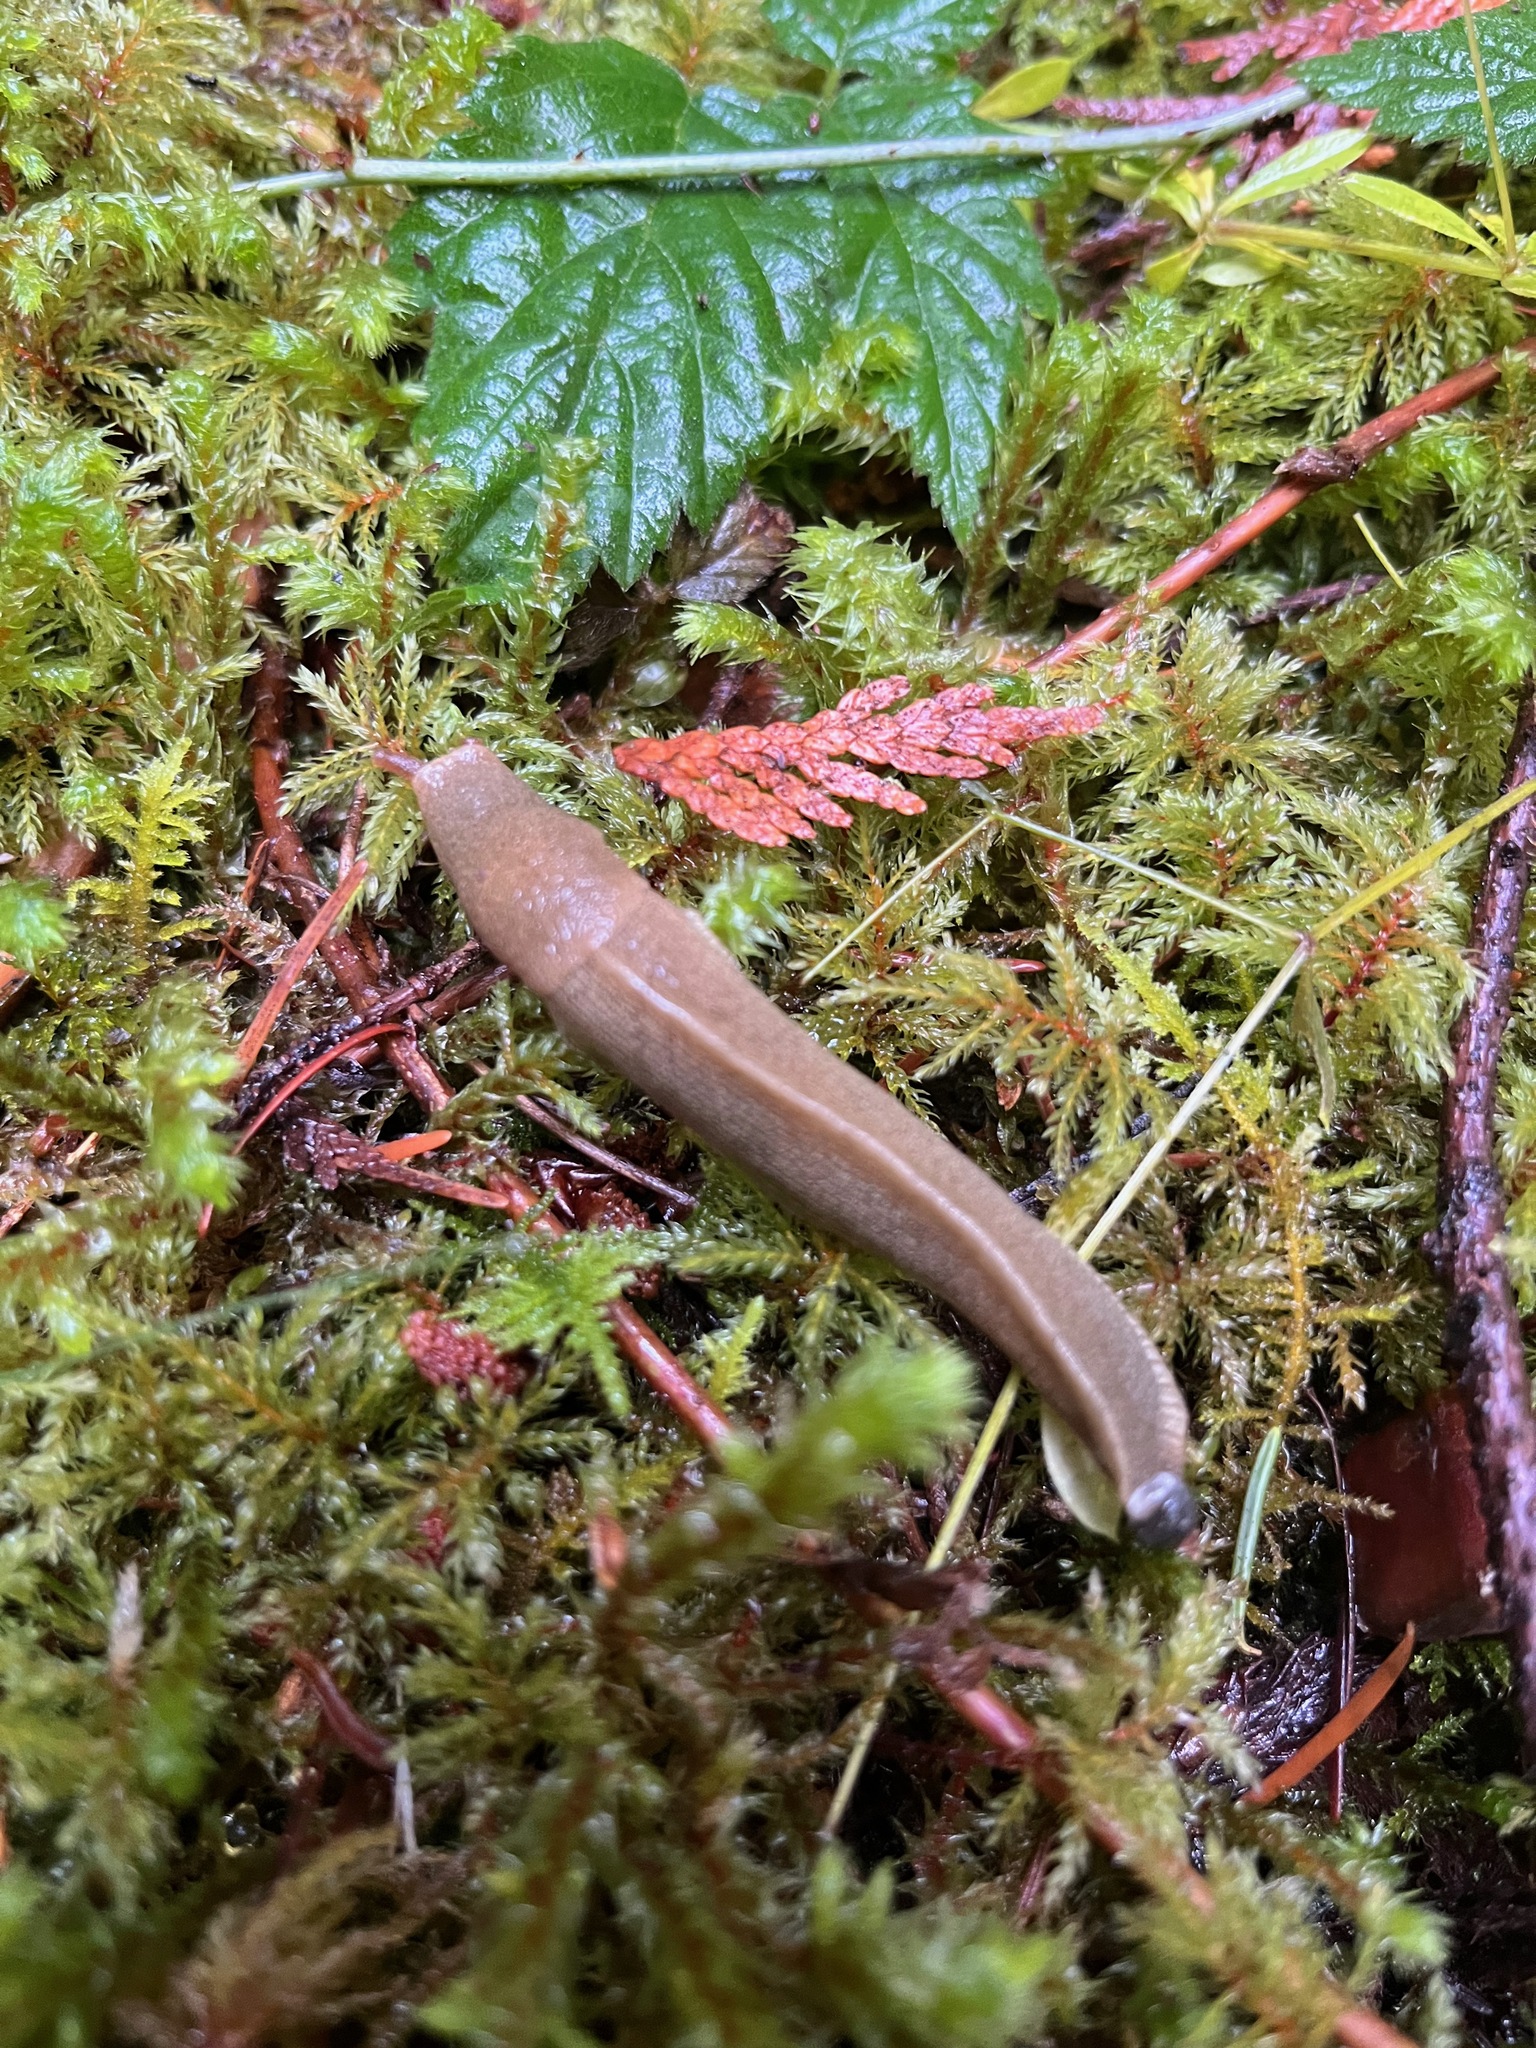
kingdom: Animalia
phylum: Mollusca
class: Gastropoda
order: Stylommatophora
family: Ariolimacidae
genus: Ariolimax
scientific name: Ariolimax columbianus
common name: Pacific banana slug
